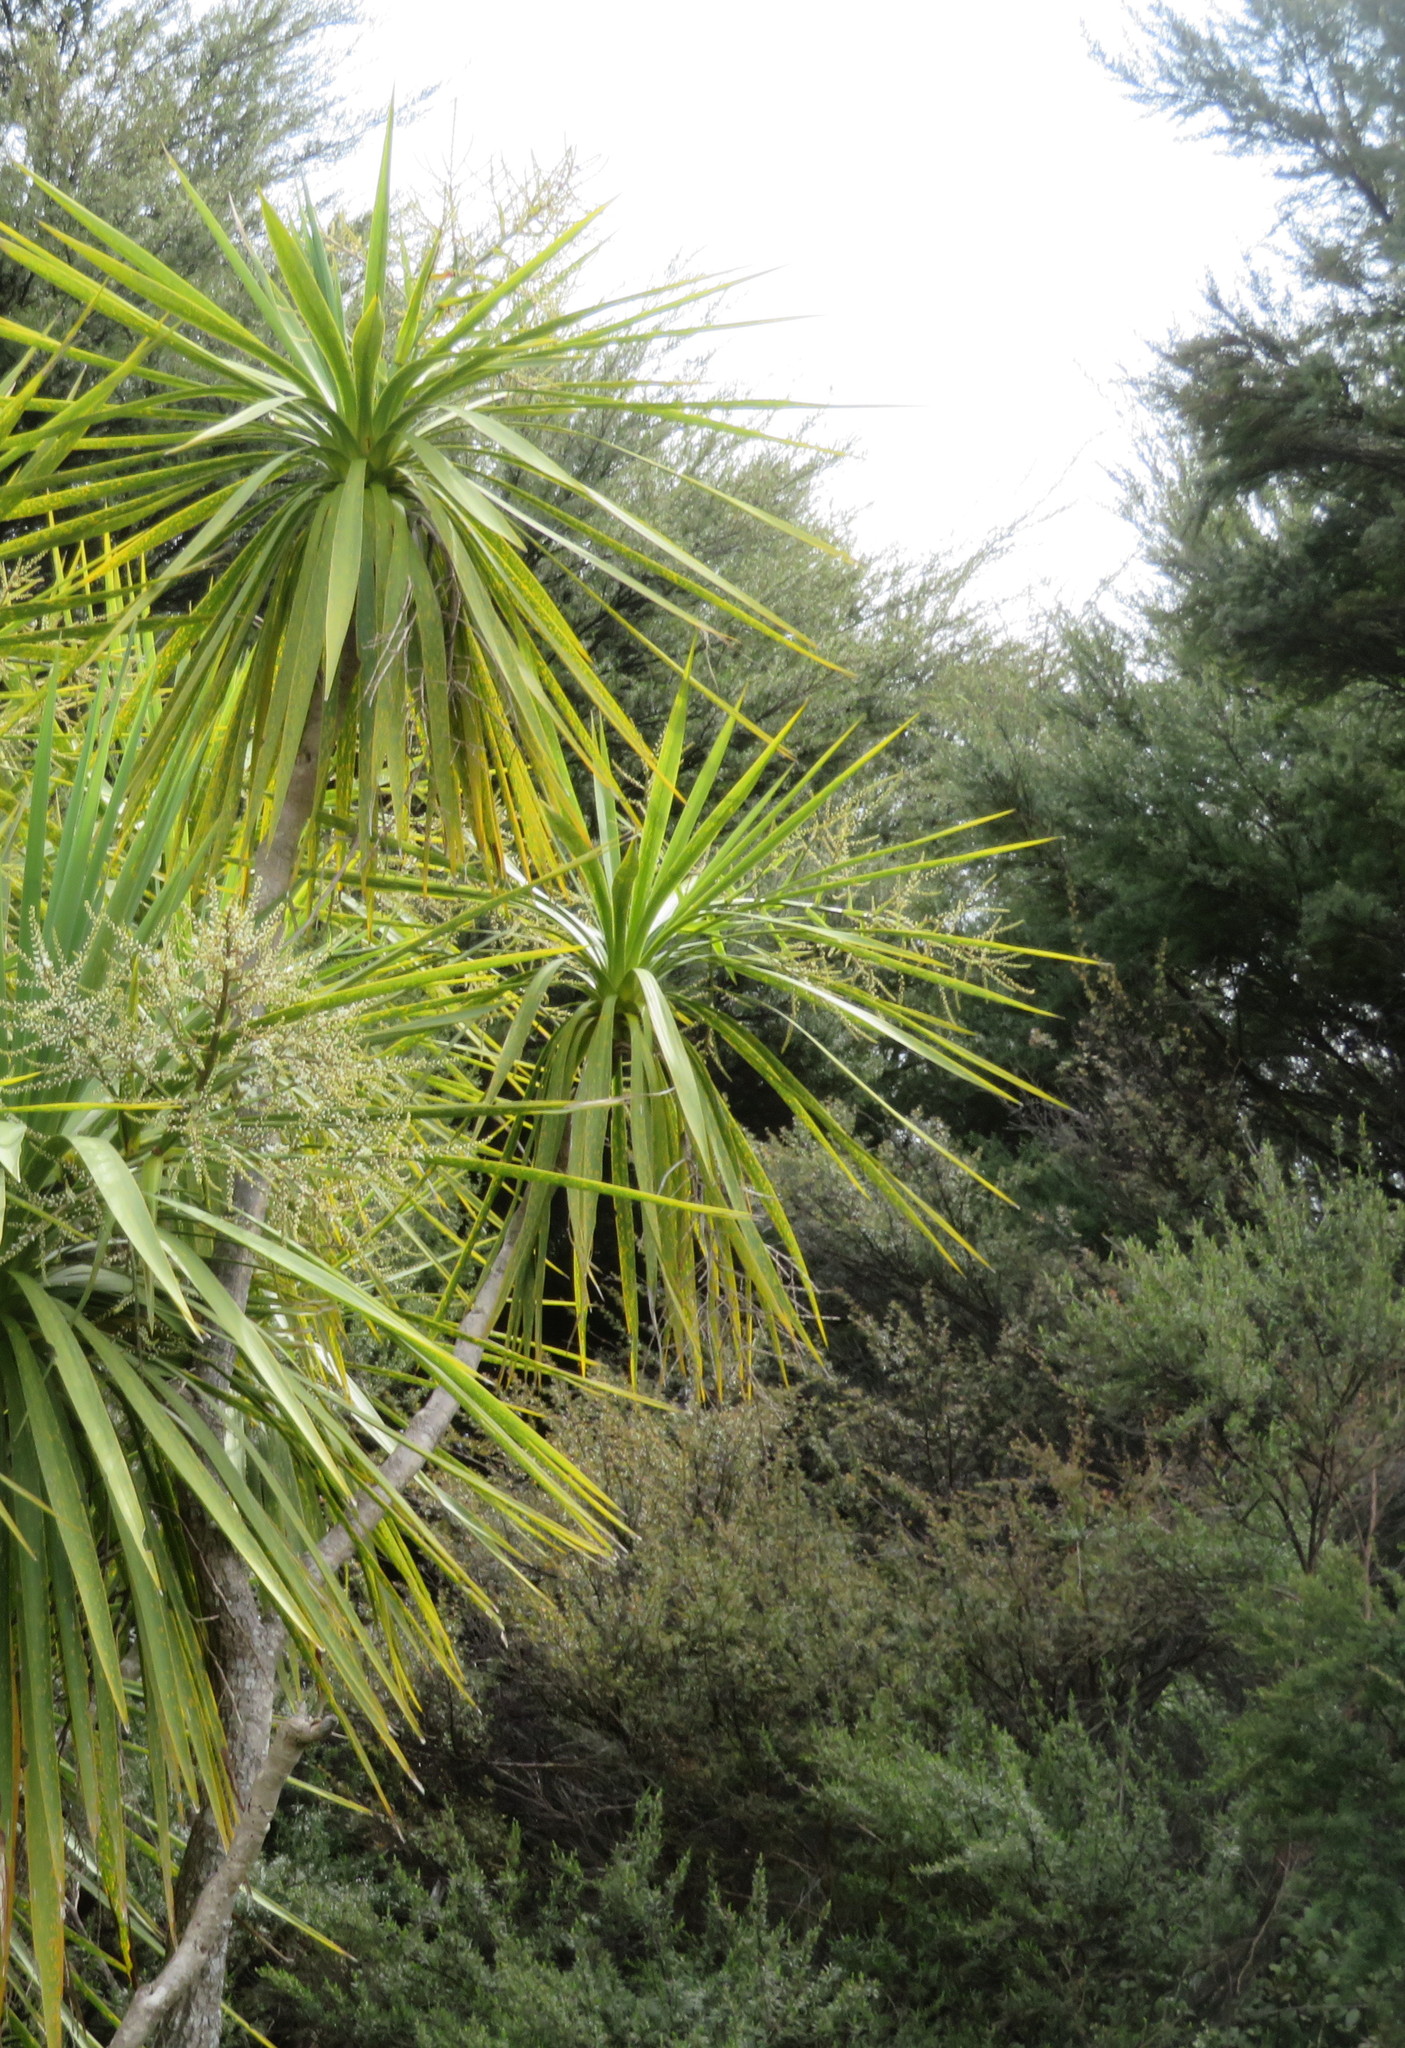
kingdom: Plantae
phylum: Tracheophyta
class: Liliopsida
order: Asparagales
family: Asparagaceae
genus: Cordyline
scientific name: Cordyline australis
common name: Cabbage-palm
